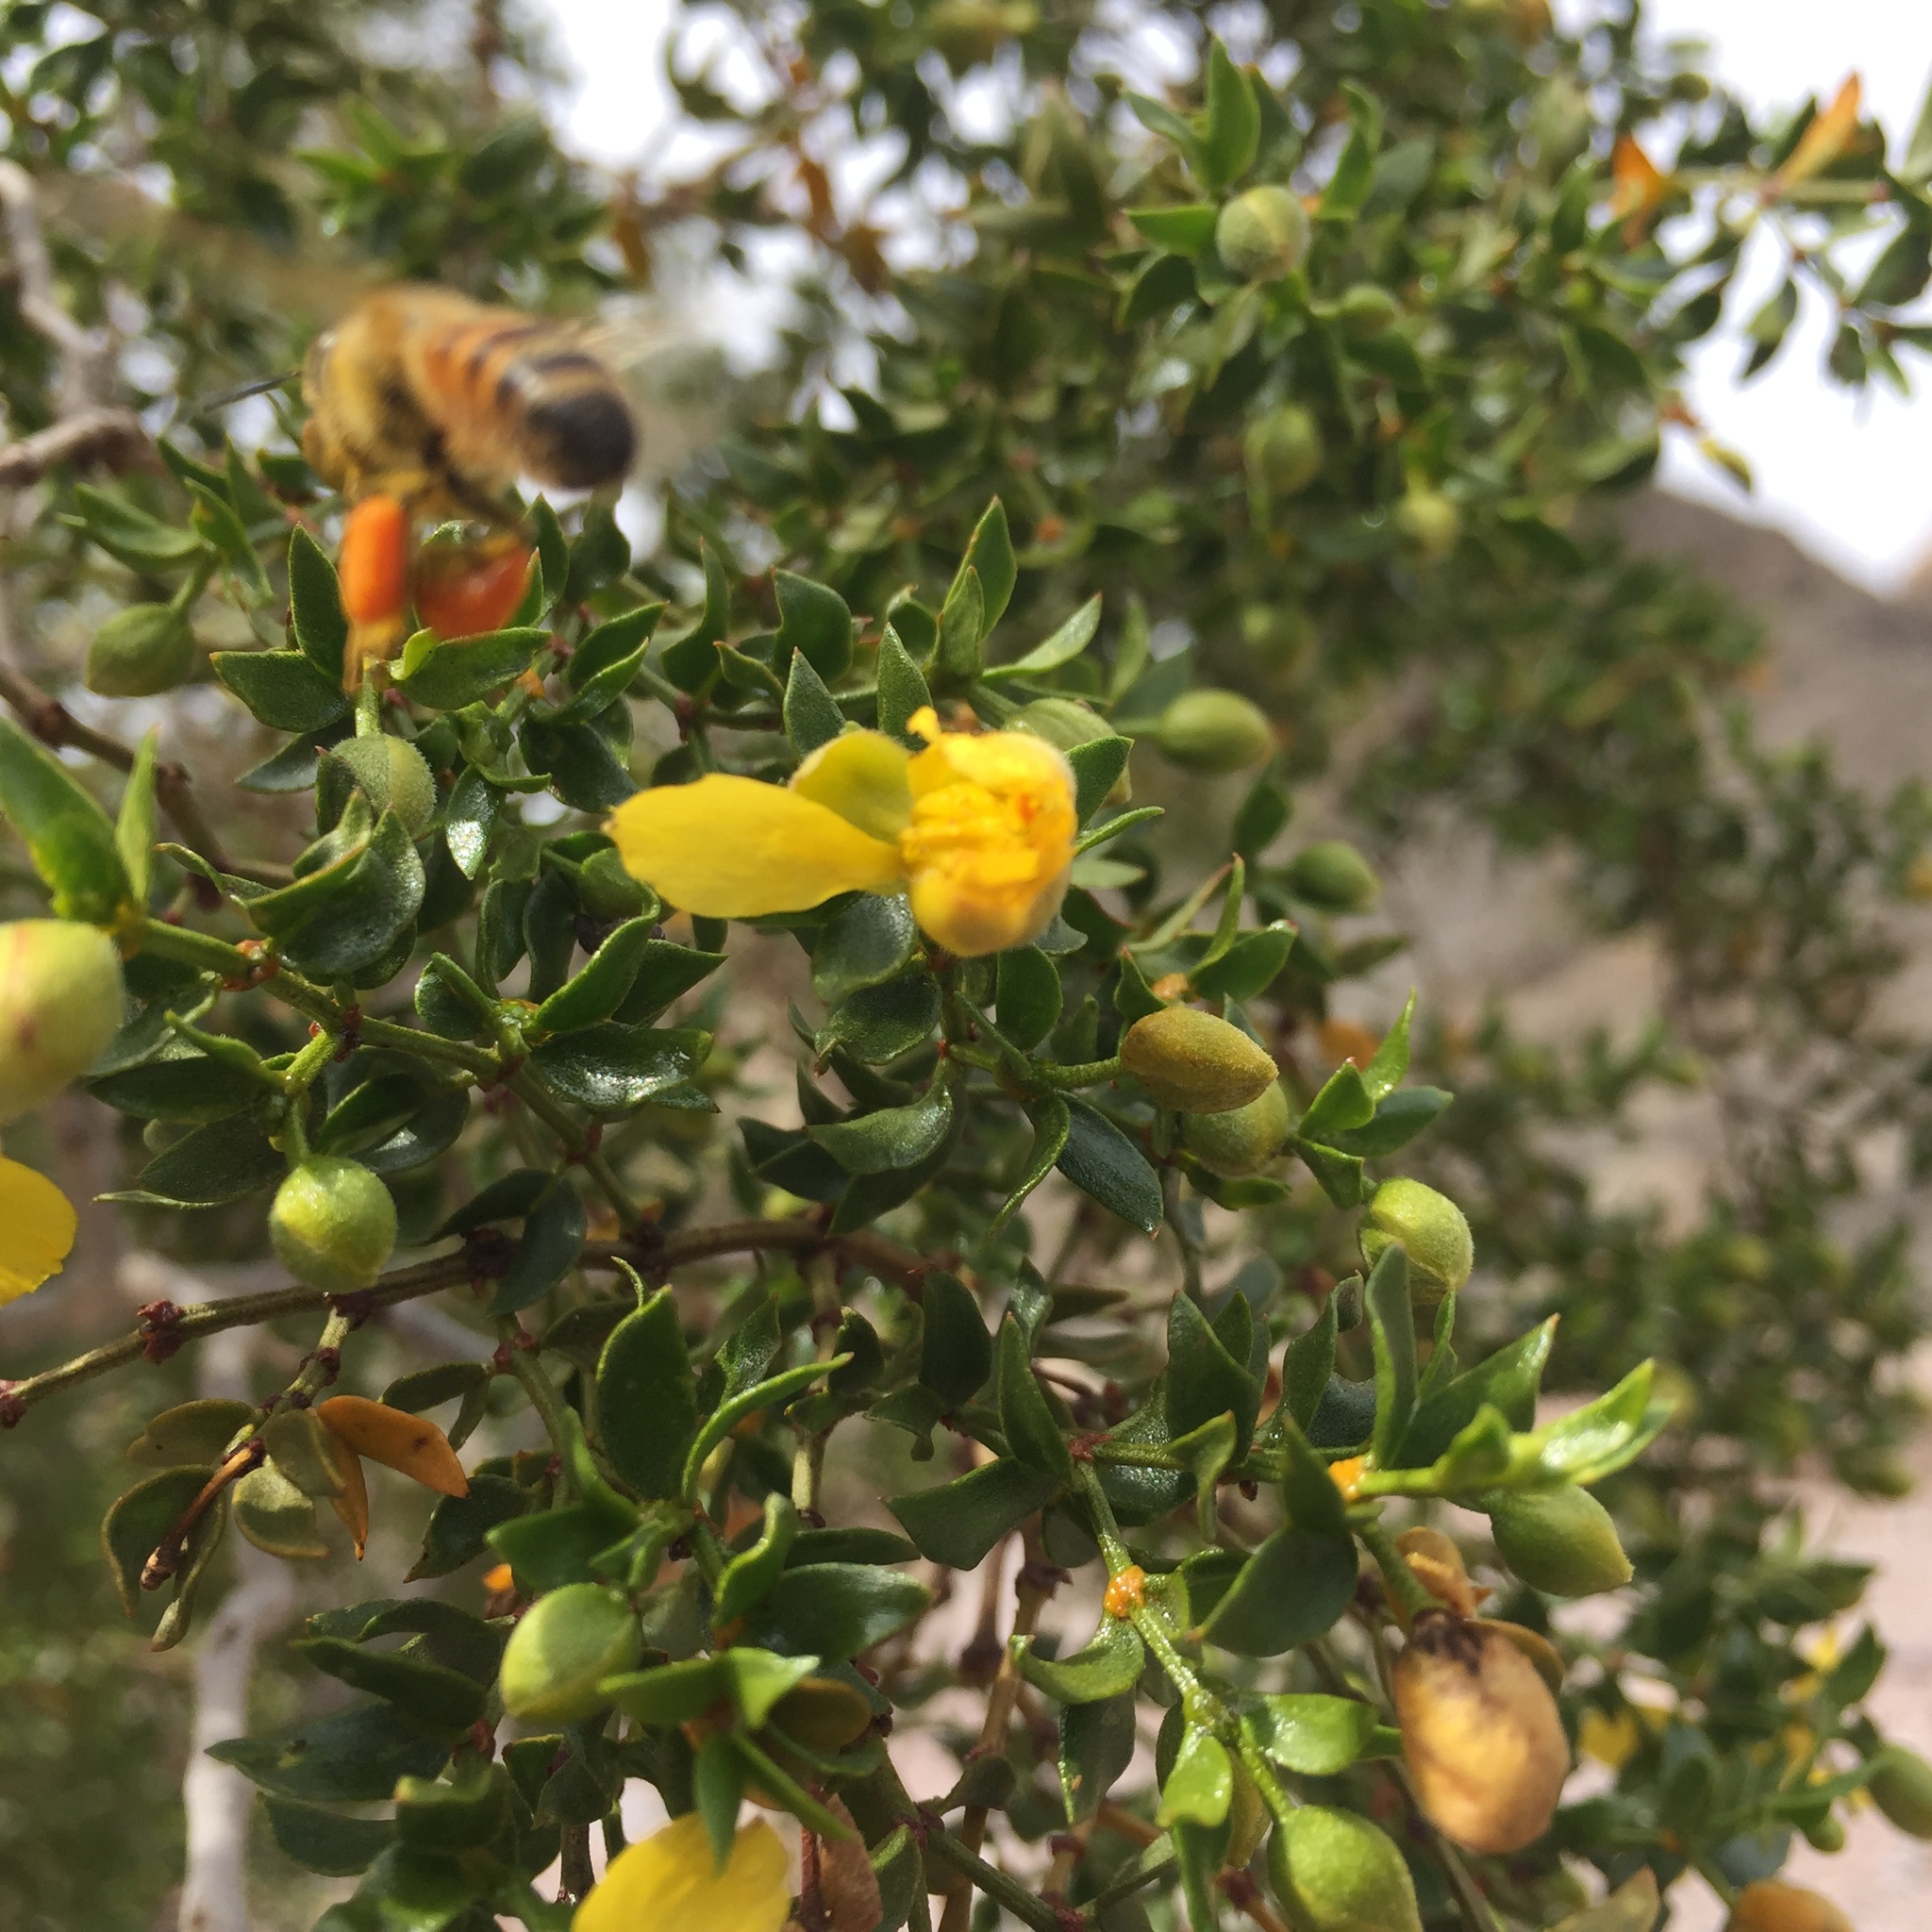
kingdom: Animalia
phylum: Arthropoda
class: Insecta
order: Hymenoptera
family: Apidae
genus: Apis
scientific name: Apis mellifera
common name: Honey bee
